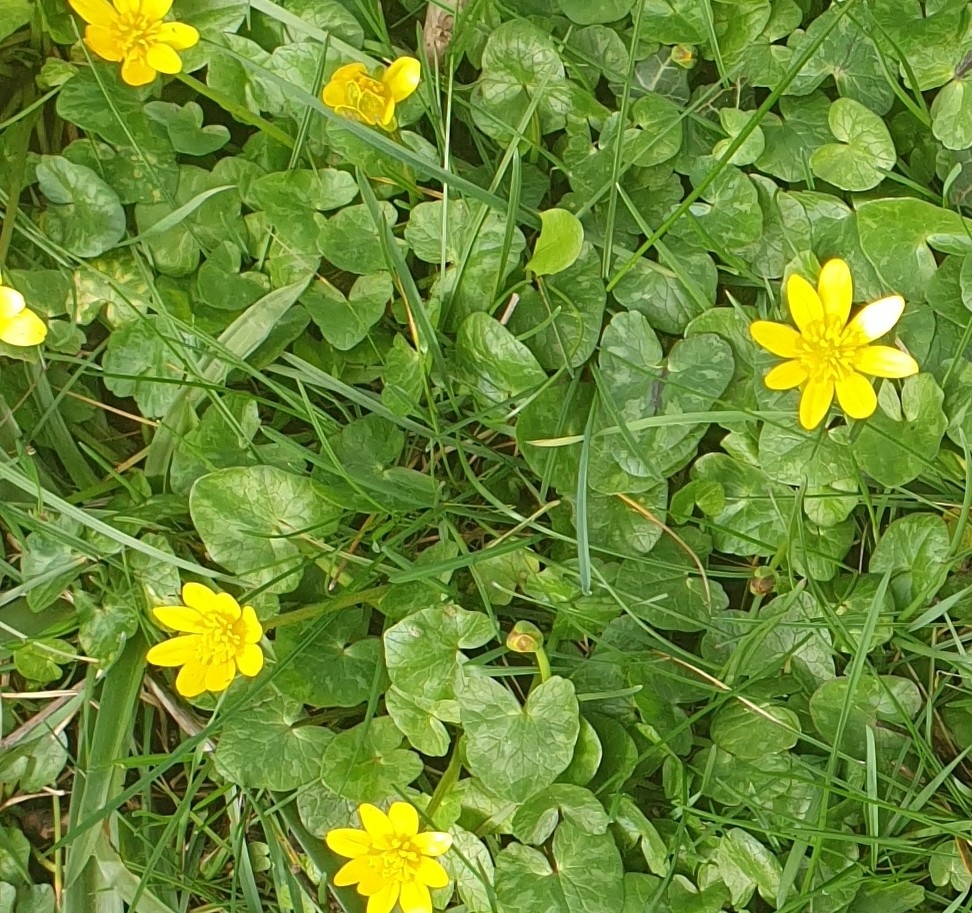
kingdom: Plantae
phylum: Tracheophyta
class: Magnoliopsida
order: Ranunculales
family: Ranunculaceae
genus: Ficaria
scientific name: Ficaria verna
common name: Lesser celandine
